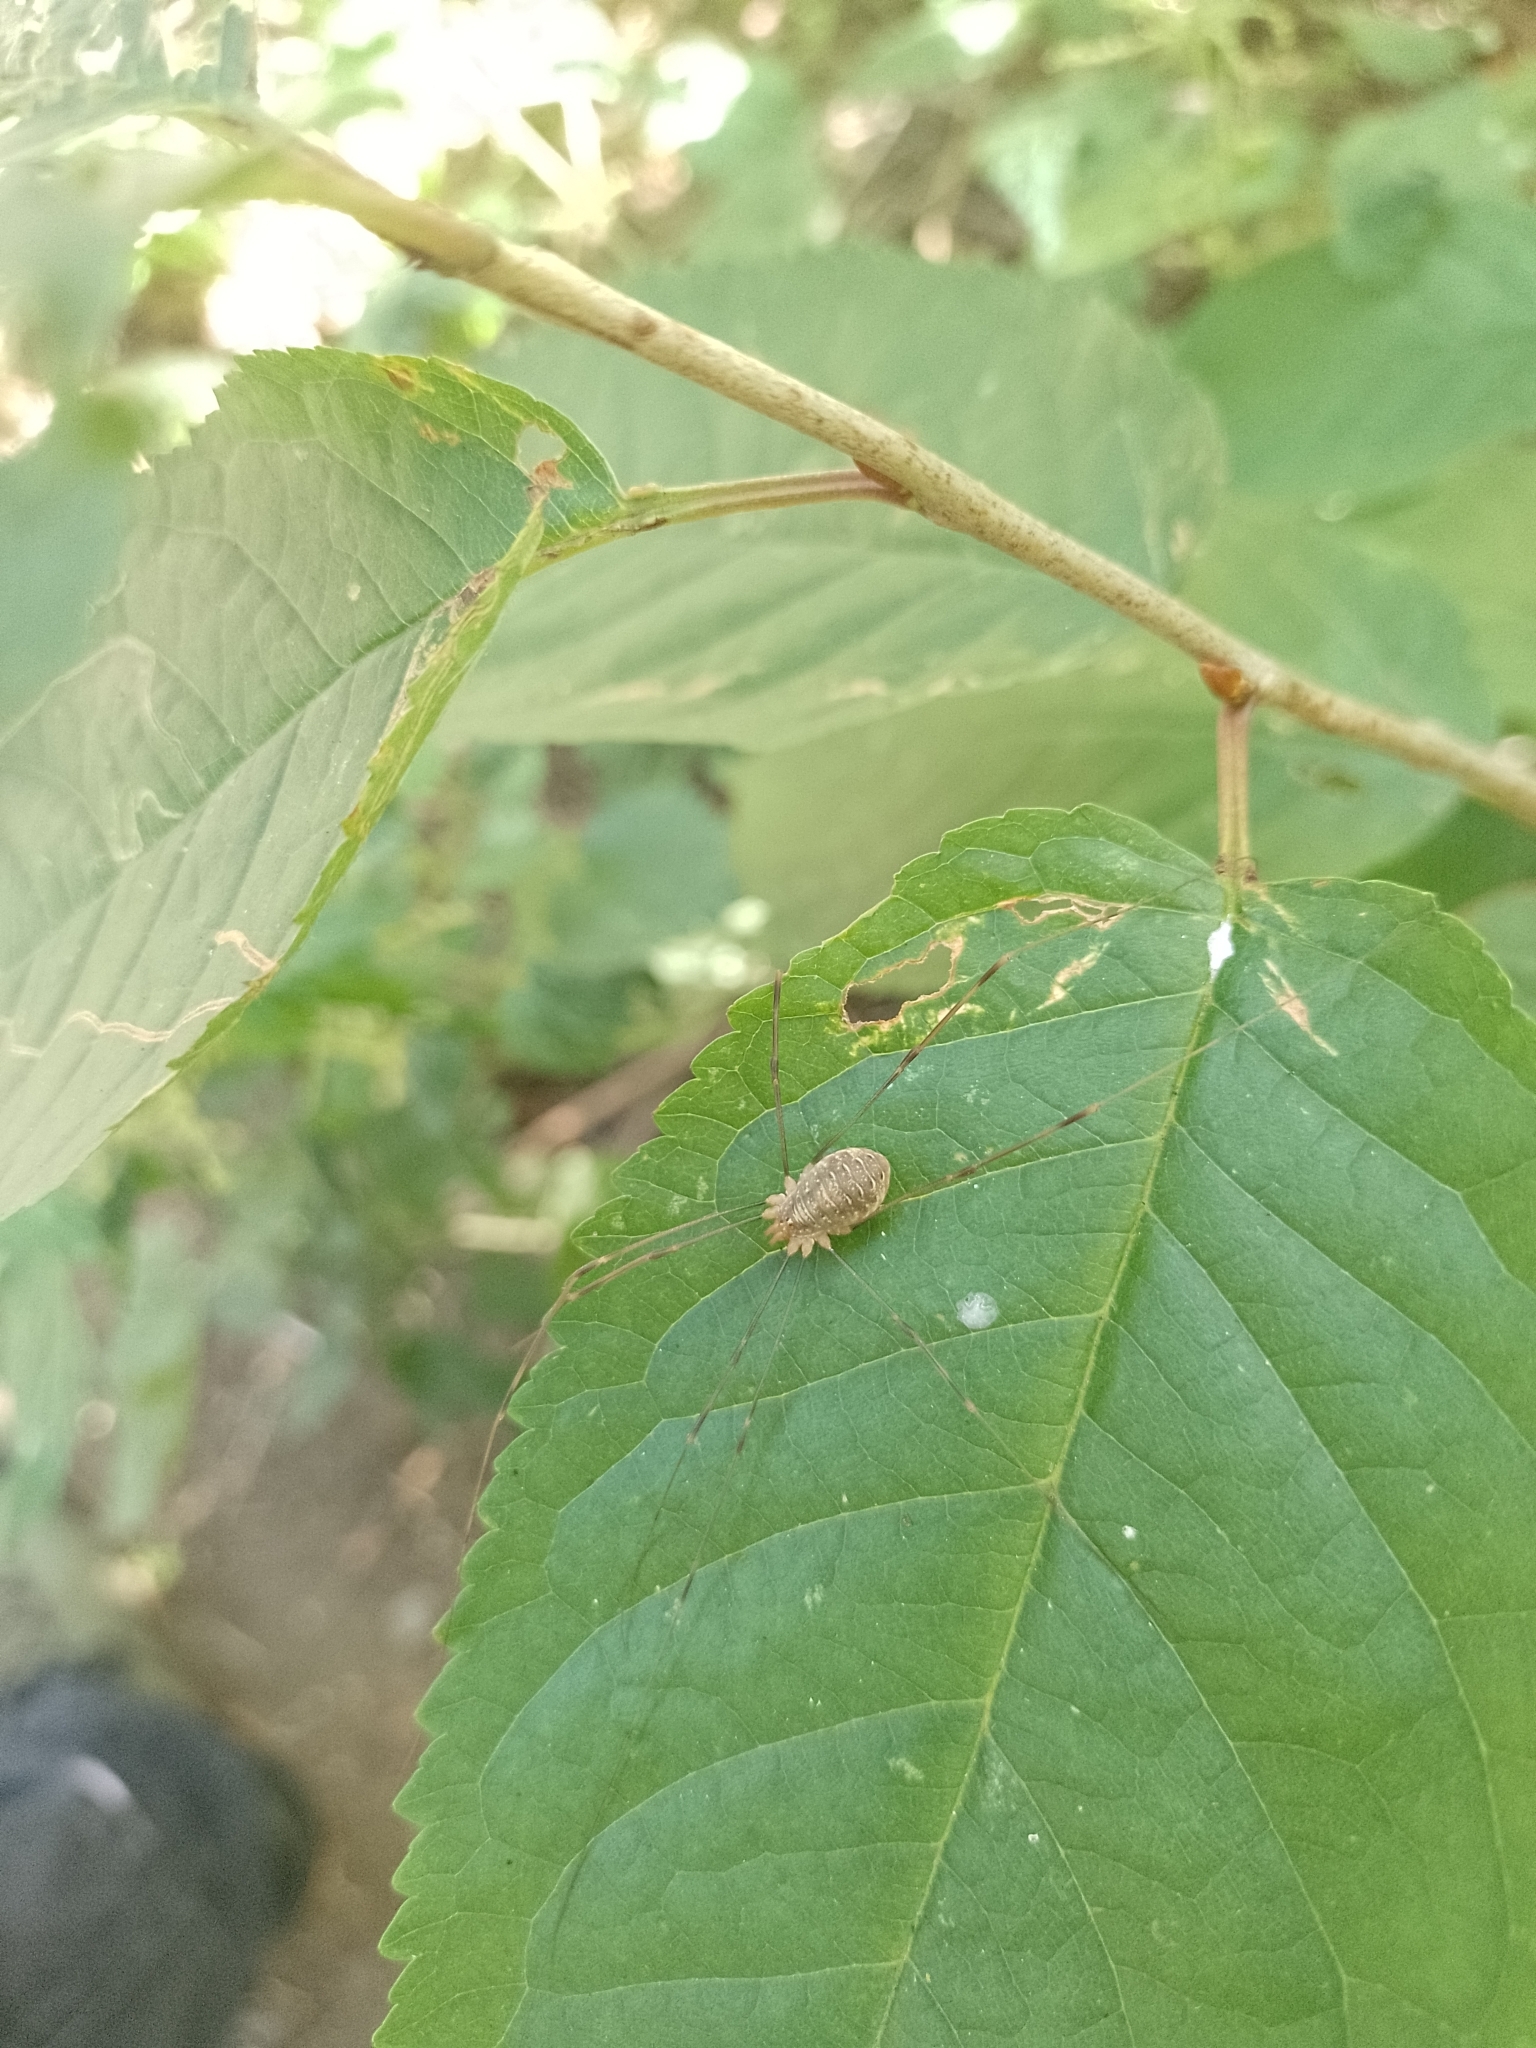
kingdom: Animalia
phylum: Arthropoda
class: Arachnida
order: Opiliones
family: Phalangiidae
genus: Opilio
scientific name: Opilio canestrinii
